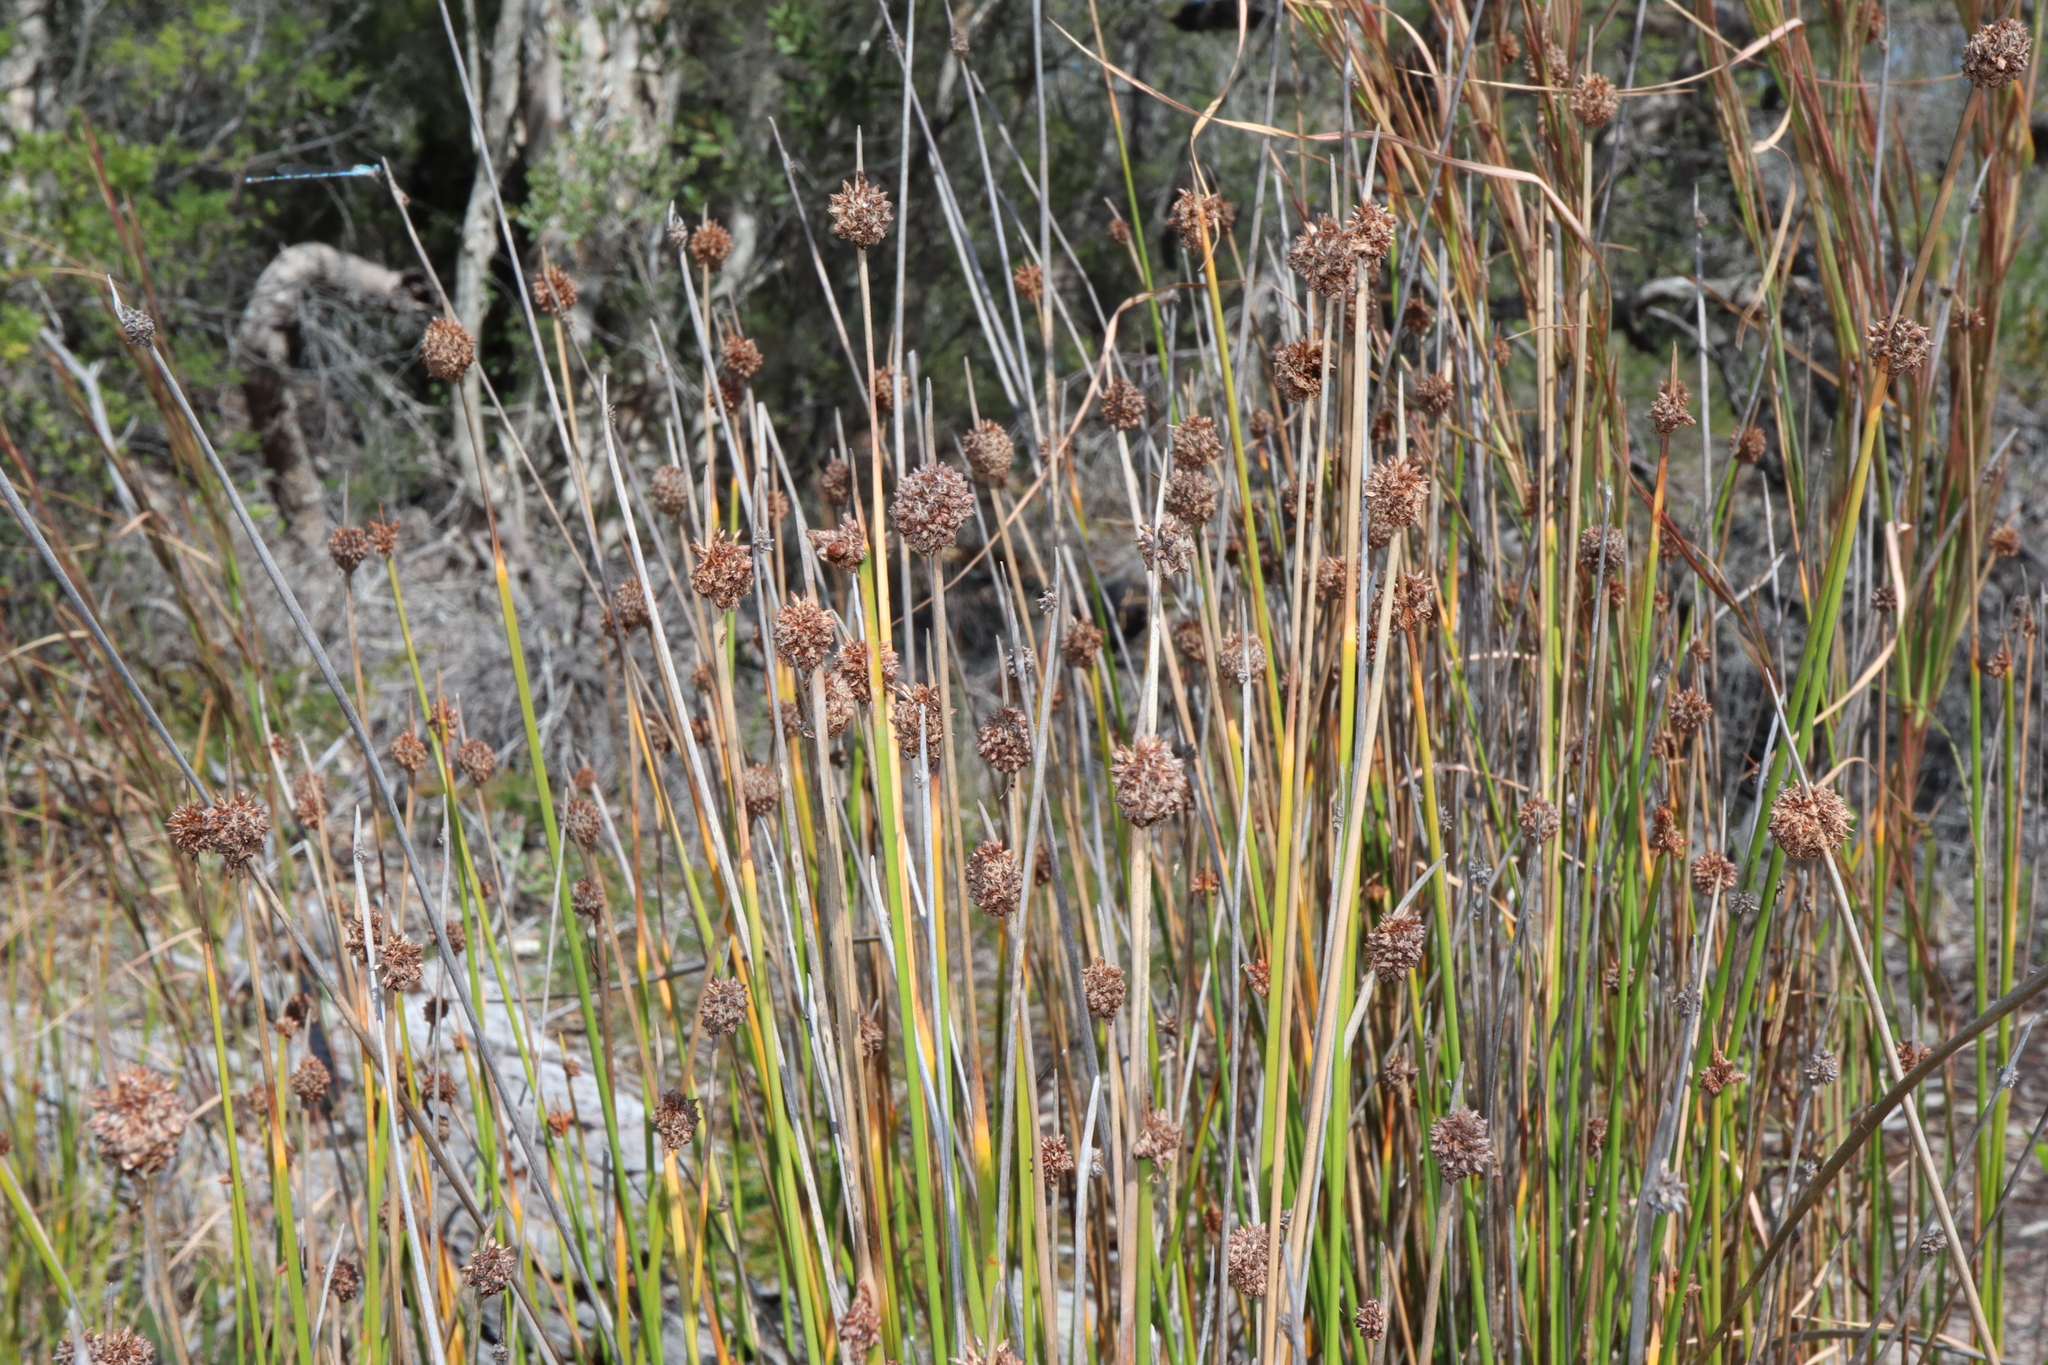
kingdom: Plantae
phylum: Tracheophyta
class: Liliopsida
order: Poales
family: Cyperaceae
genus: Ficinia
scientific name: Ficinia nodosa
